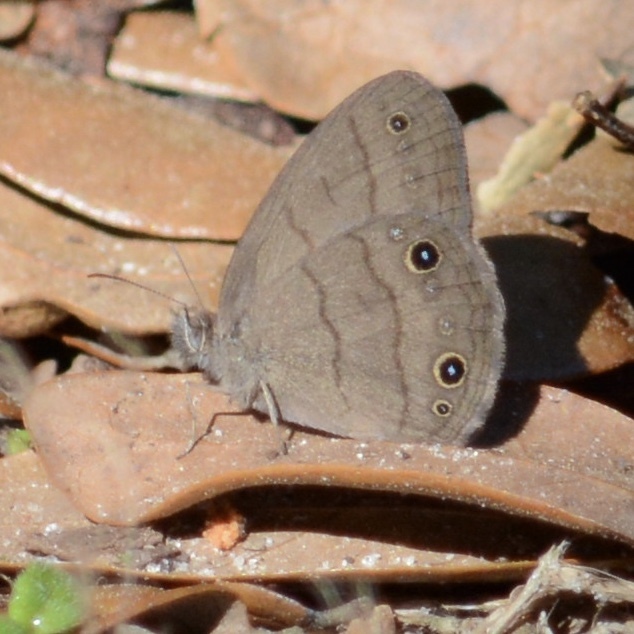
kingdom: Animalia
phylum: Arthropoda
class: Insecta
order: Lepidoptera
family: Nymphalidae
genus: Hermeuptychia
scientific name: Hermeuptychia hermes
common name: Hermes satyr
